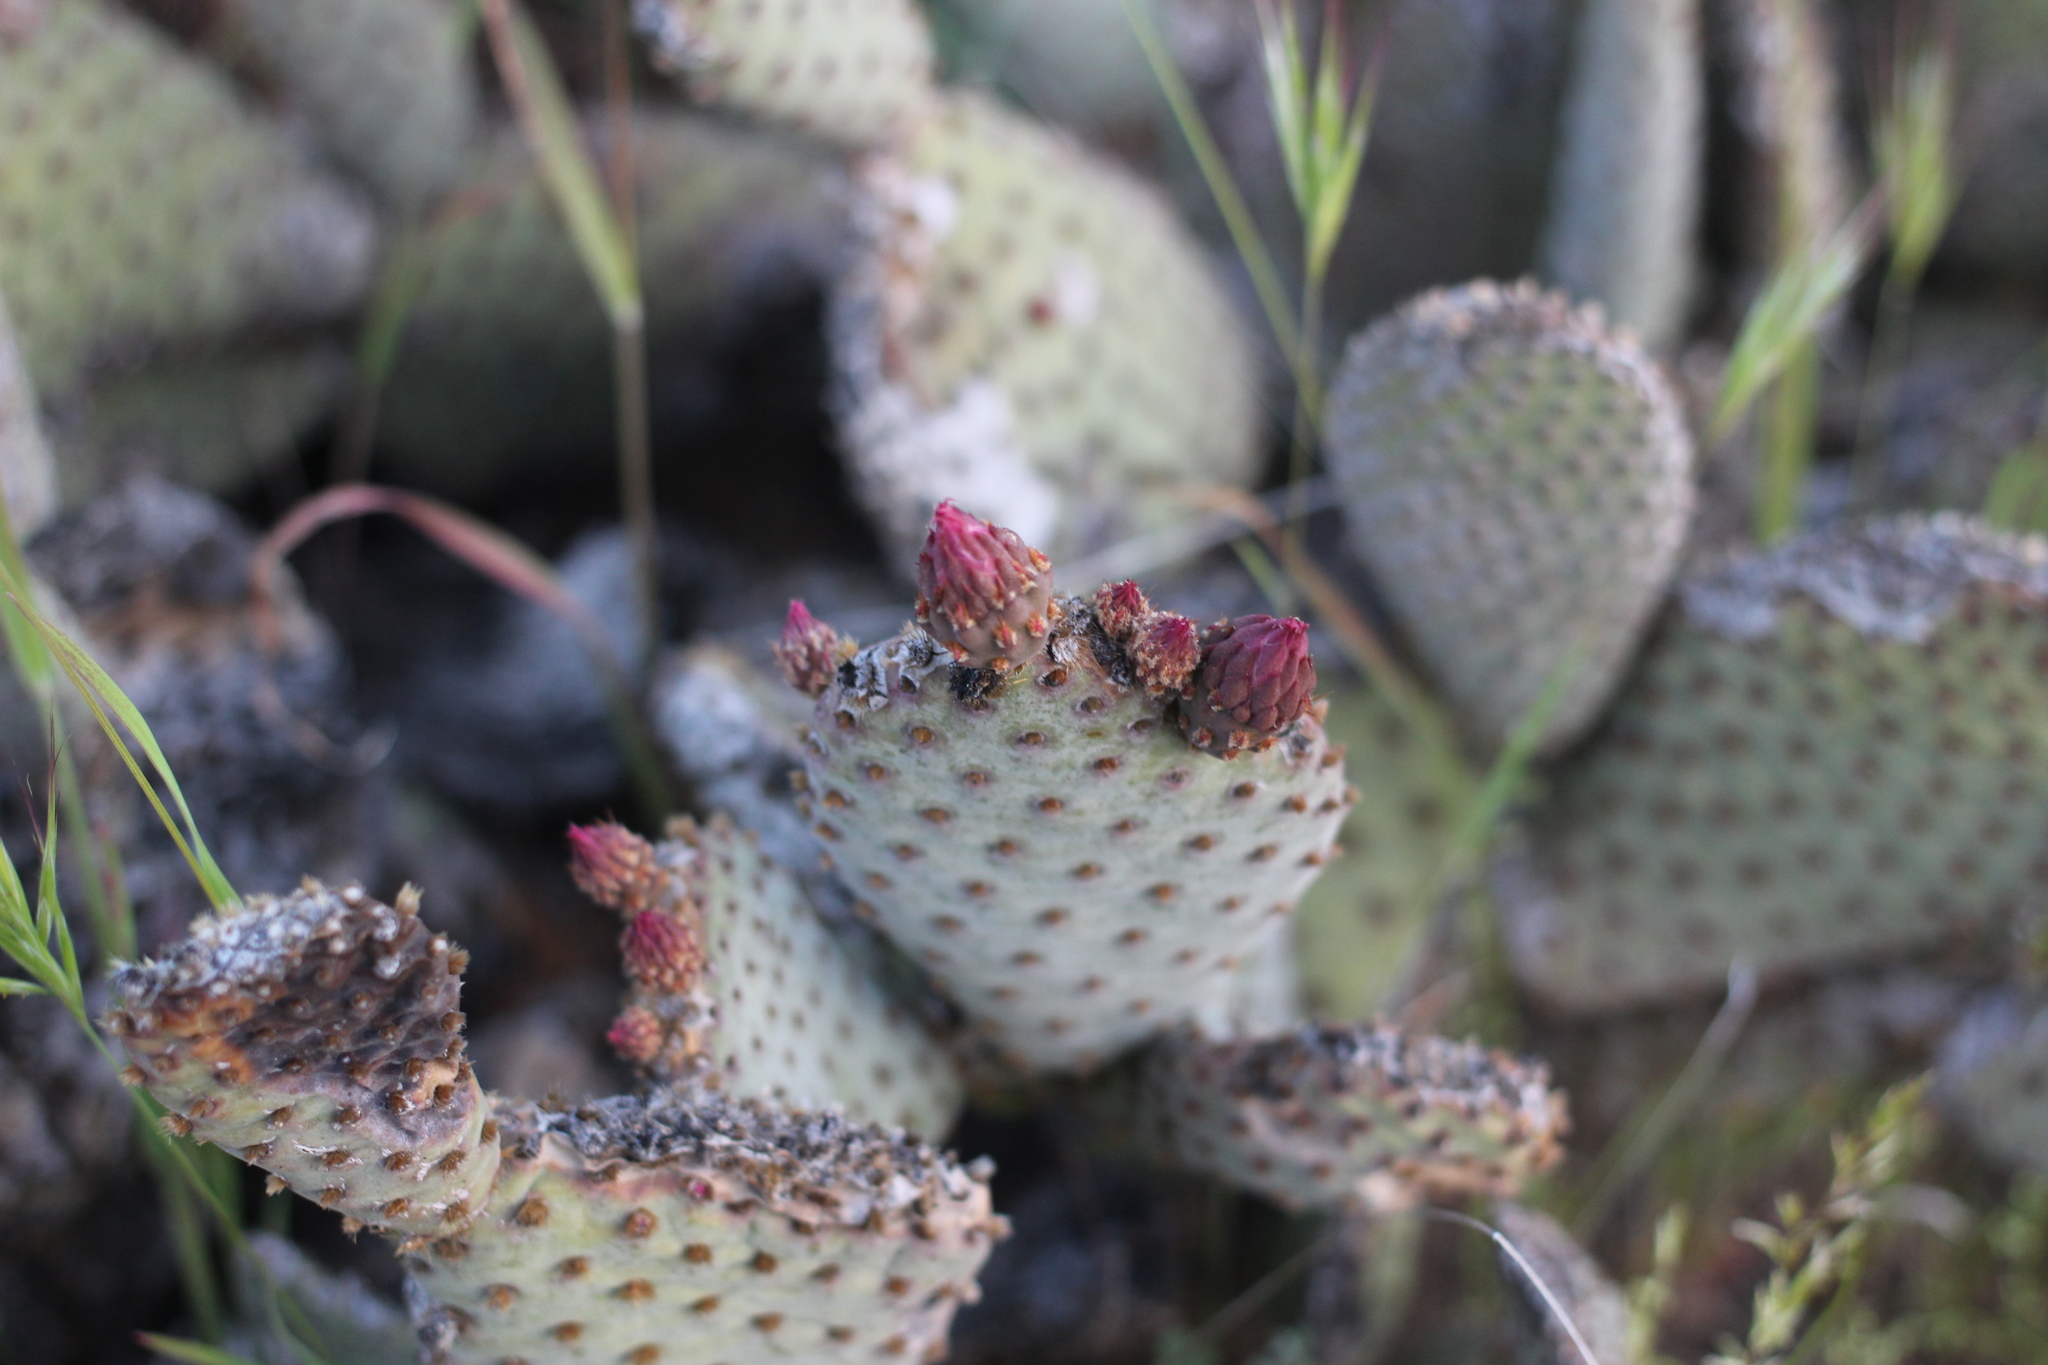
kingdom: Plantae
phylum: Tracheophyta
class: Magnoliopsida
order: Caryophyllales
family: Cactaceae
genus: Opuntia
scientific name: Opuntia basilaris
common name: Beavertail prickly-pear
